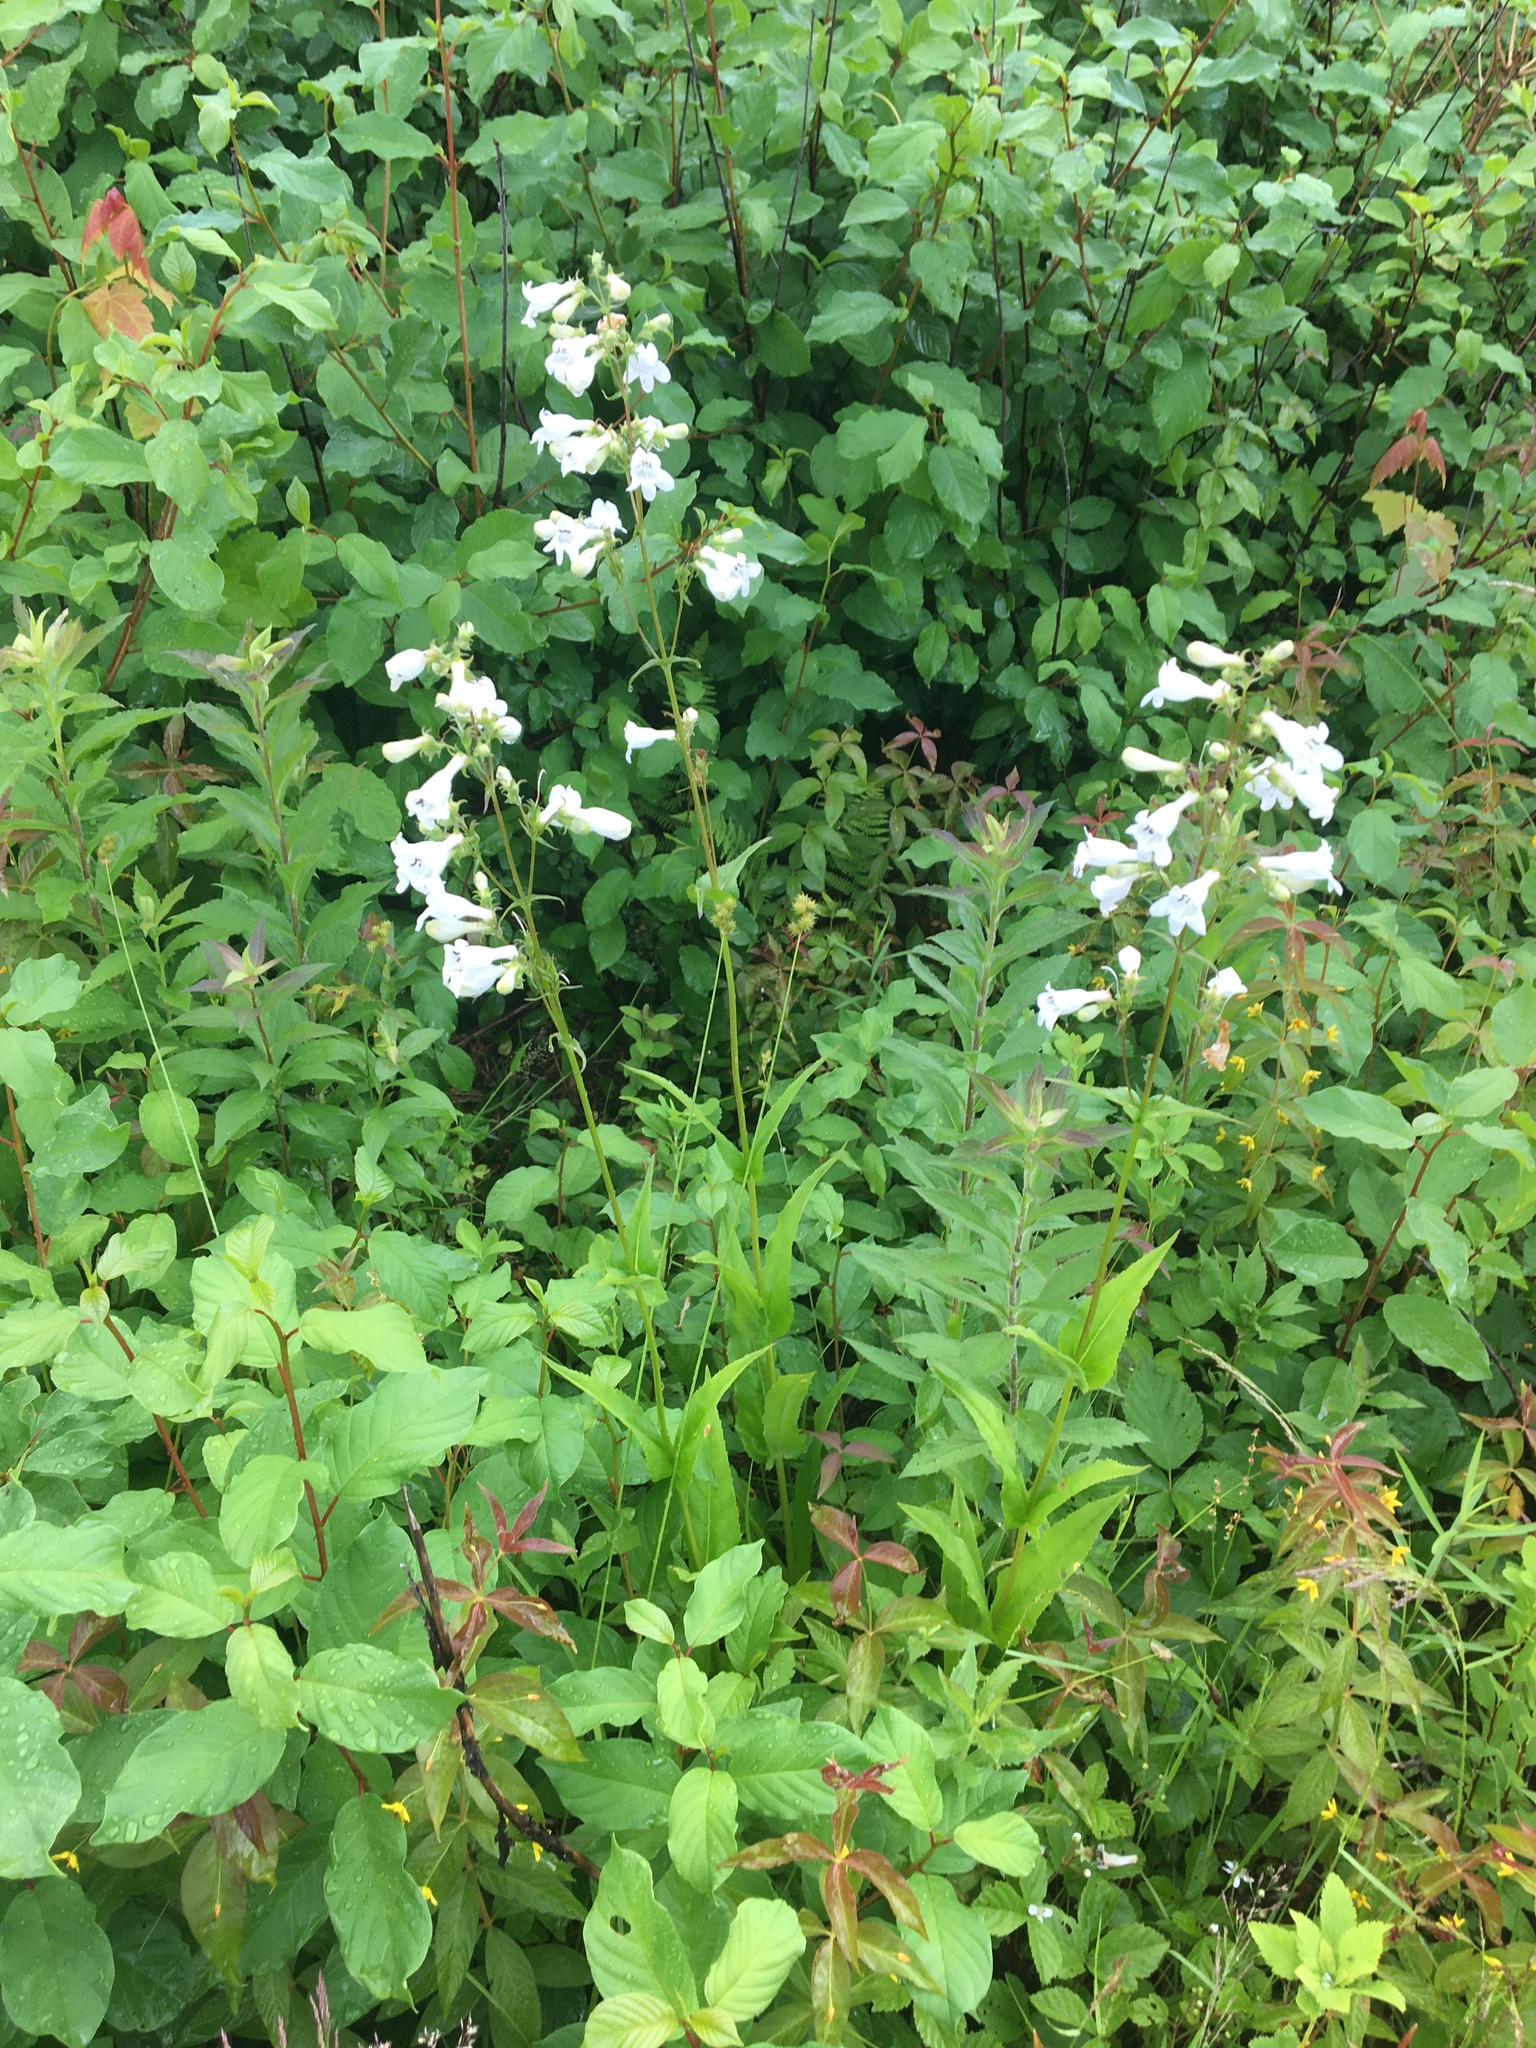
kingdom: Plantae
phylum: Tracheophyta
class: Magnoliopsida
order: Lamiales
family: Plantaginaceae
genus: Penstemon
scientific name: Penstemon digitalis
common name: Foxglove beardtongue
